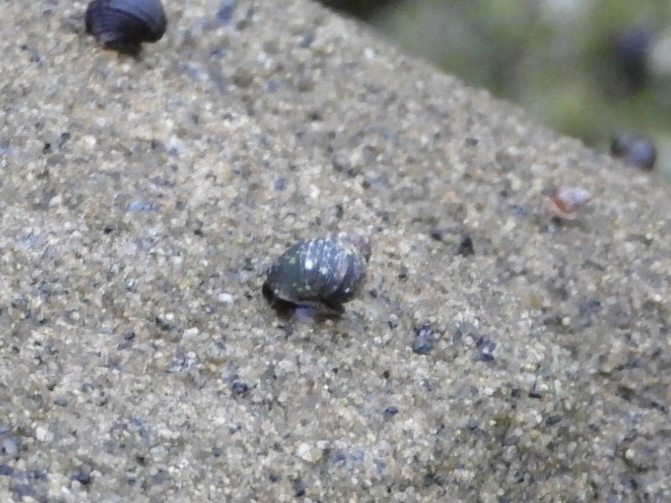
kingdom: Animalia
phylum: Mollusca
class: Gastropoda
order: Littorinimorpha
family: Littorinidae
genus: Littorina
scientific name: Littorina scutulata
